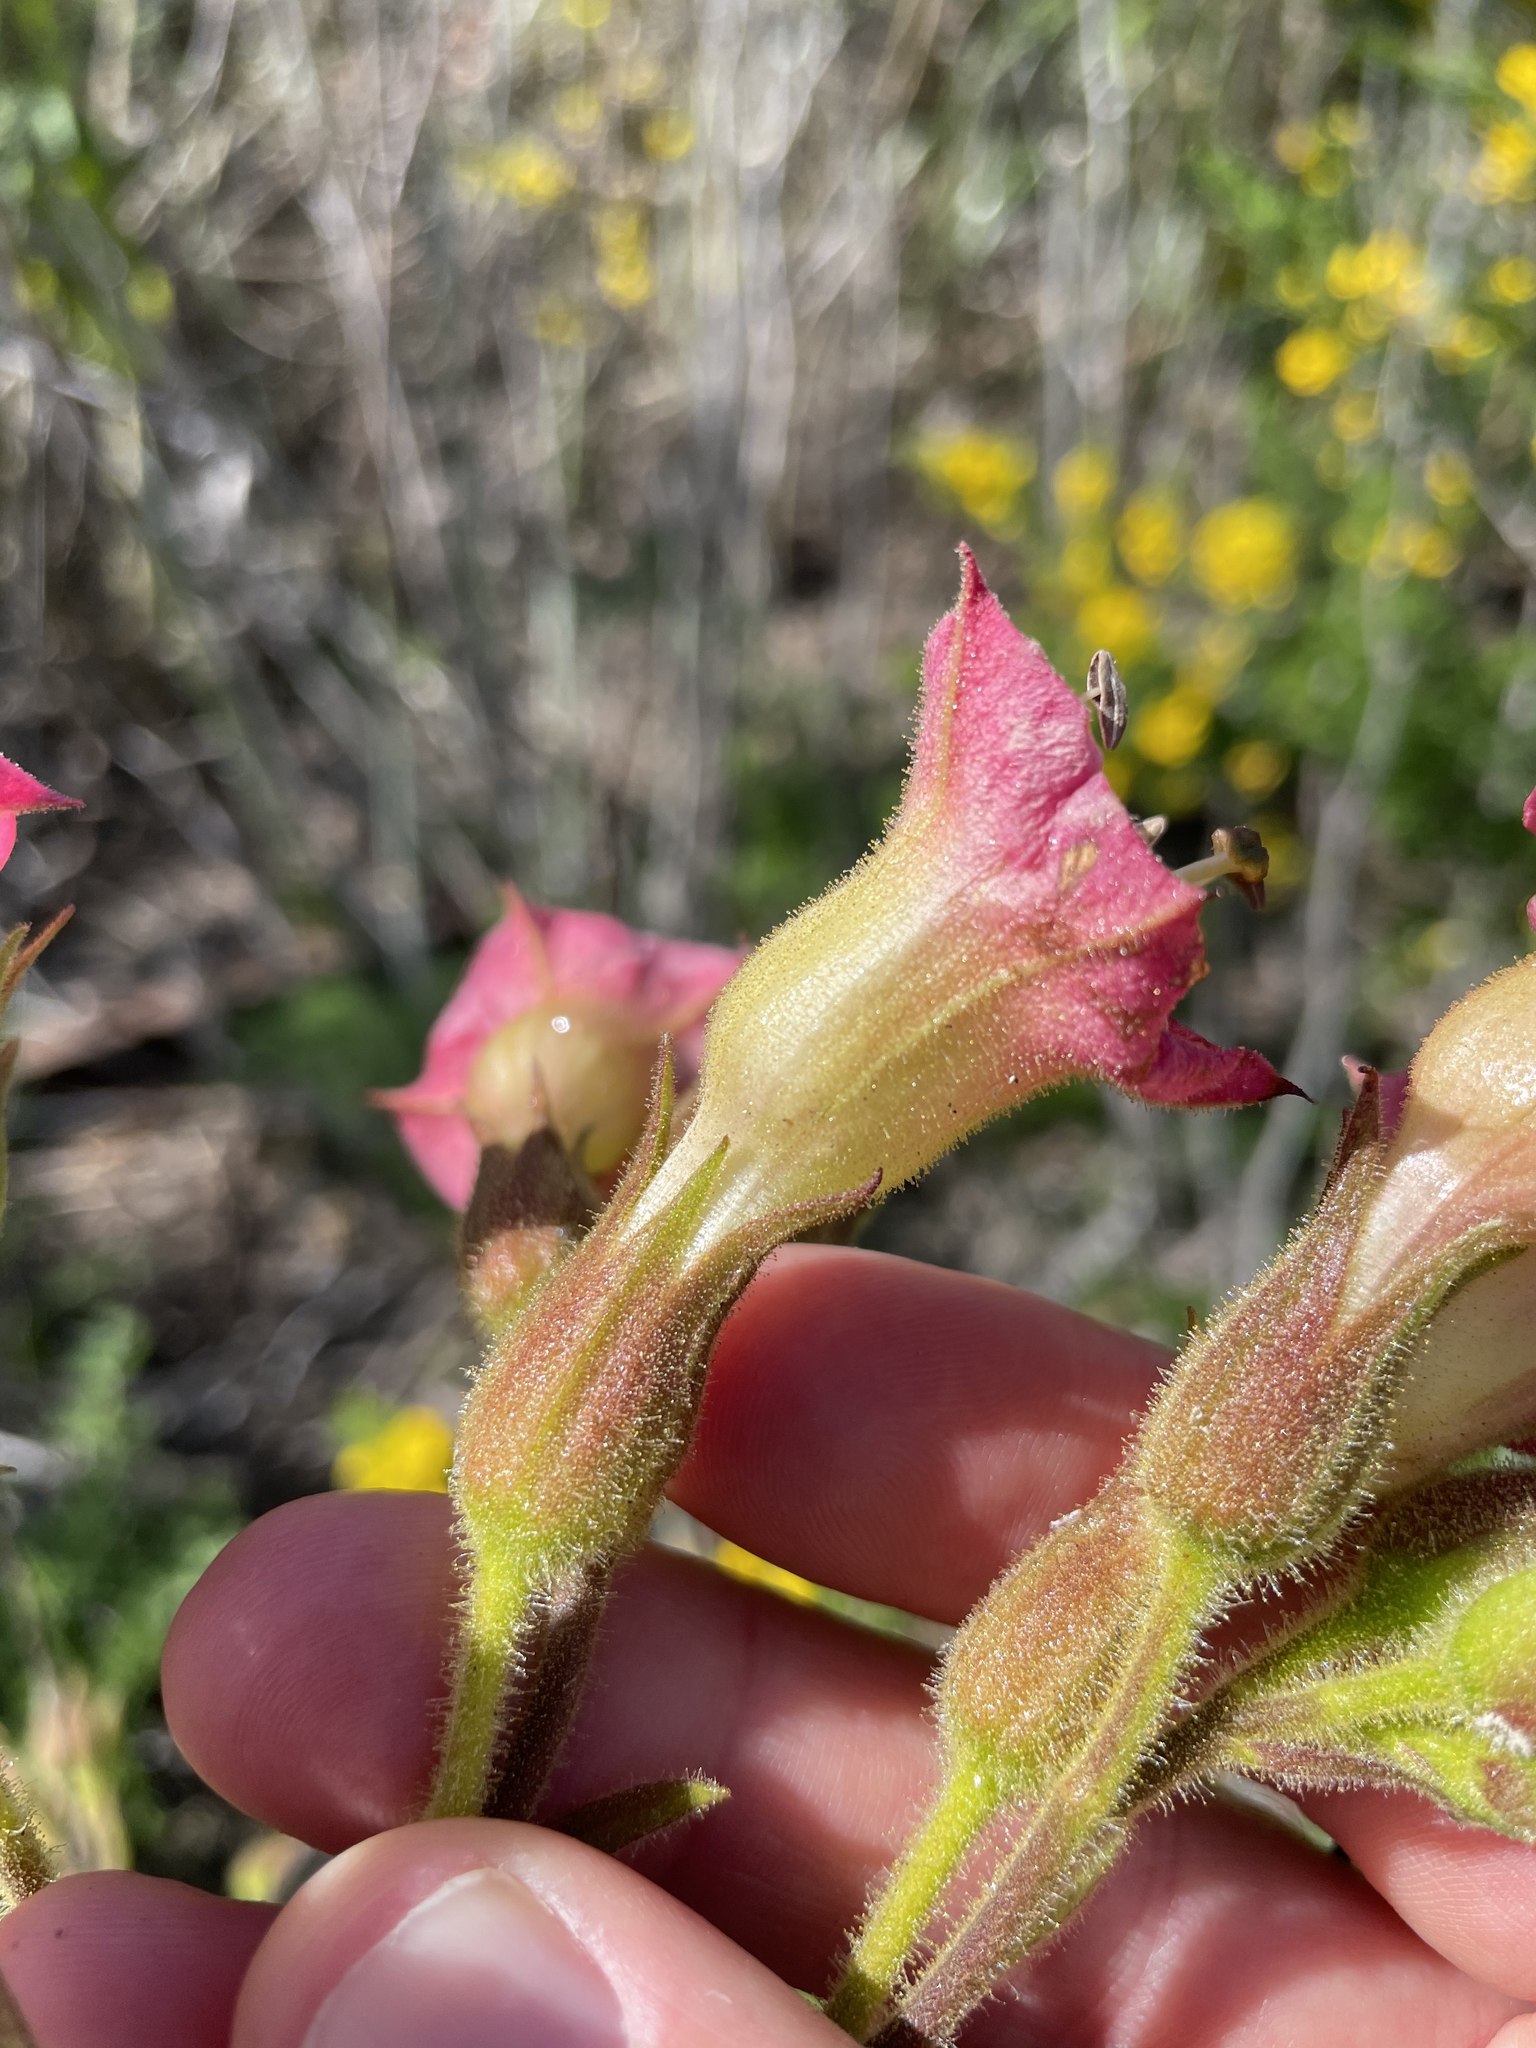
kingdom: Plantae
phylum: Tracheophyta
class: Magnoliopsida
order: Solanales
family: Solanaceae
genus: Nicotiana
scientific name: Nicotiana tomentosa
